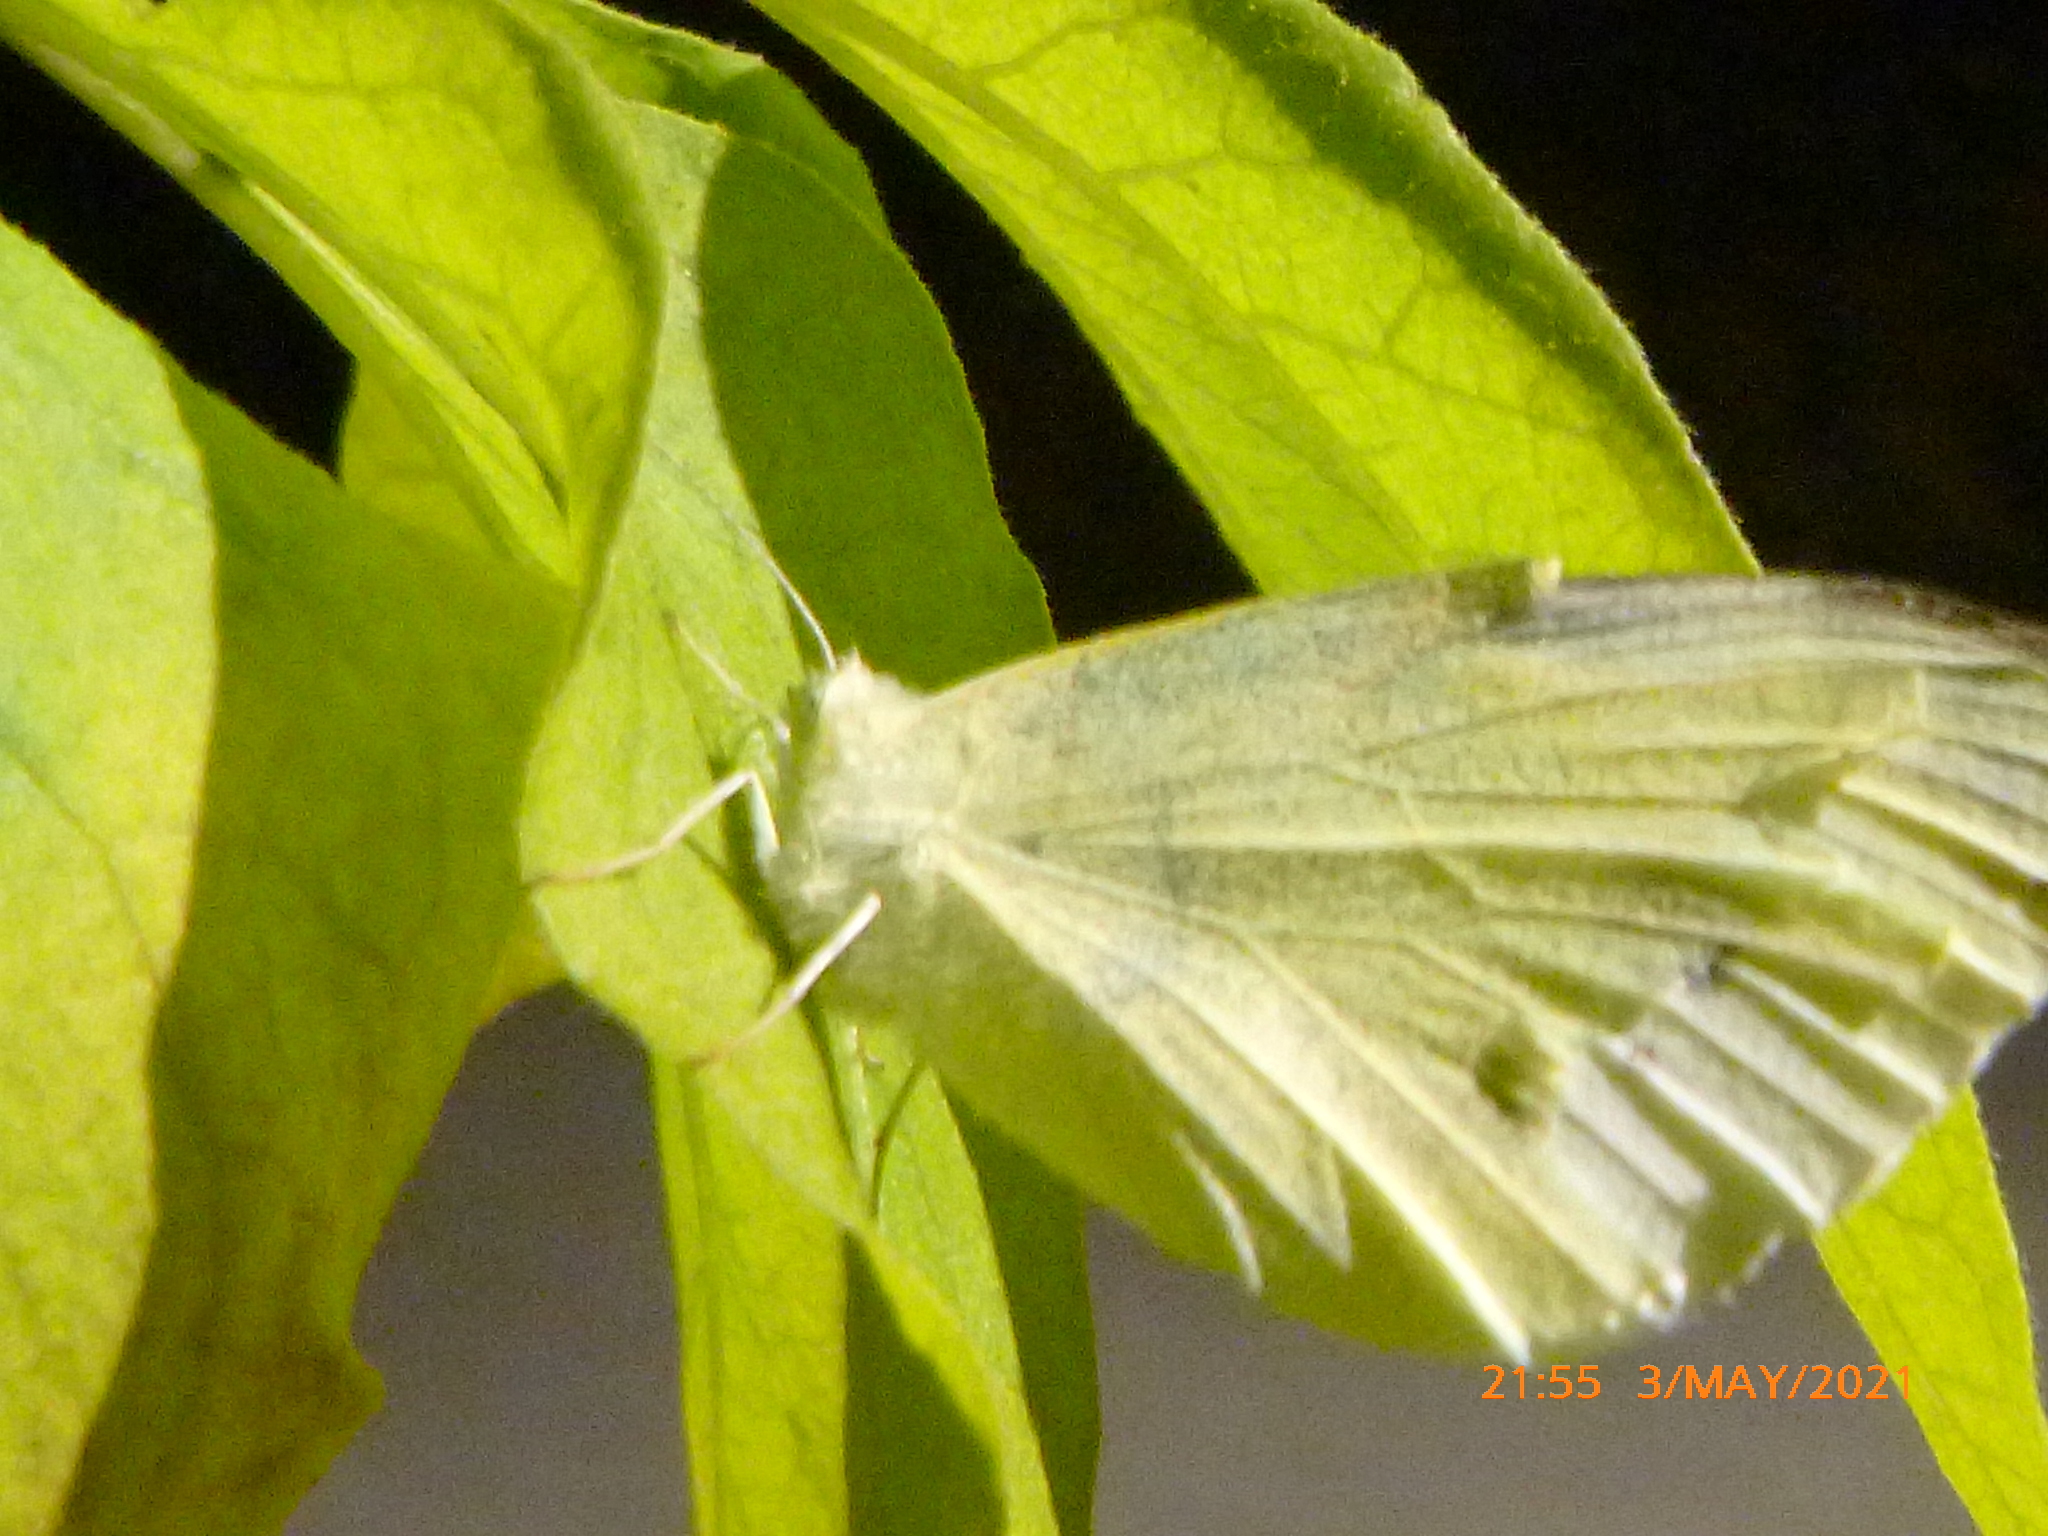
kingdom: Animalia
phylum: Arthropoda
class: Insecta
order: Lepidoptera
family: Pieridae
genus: Pieris
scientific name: Pieris rapae
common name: Small white
